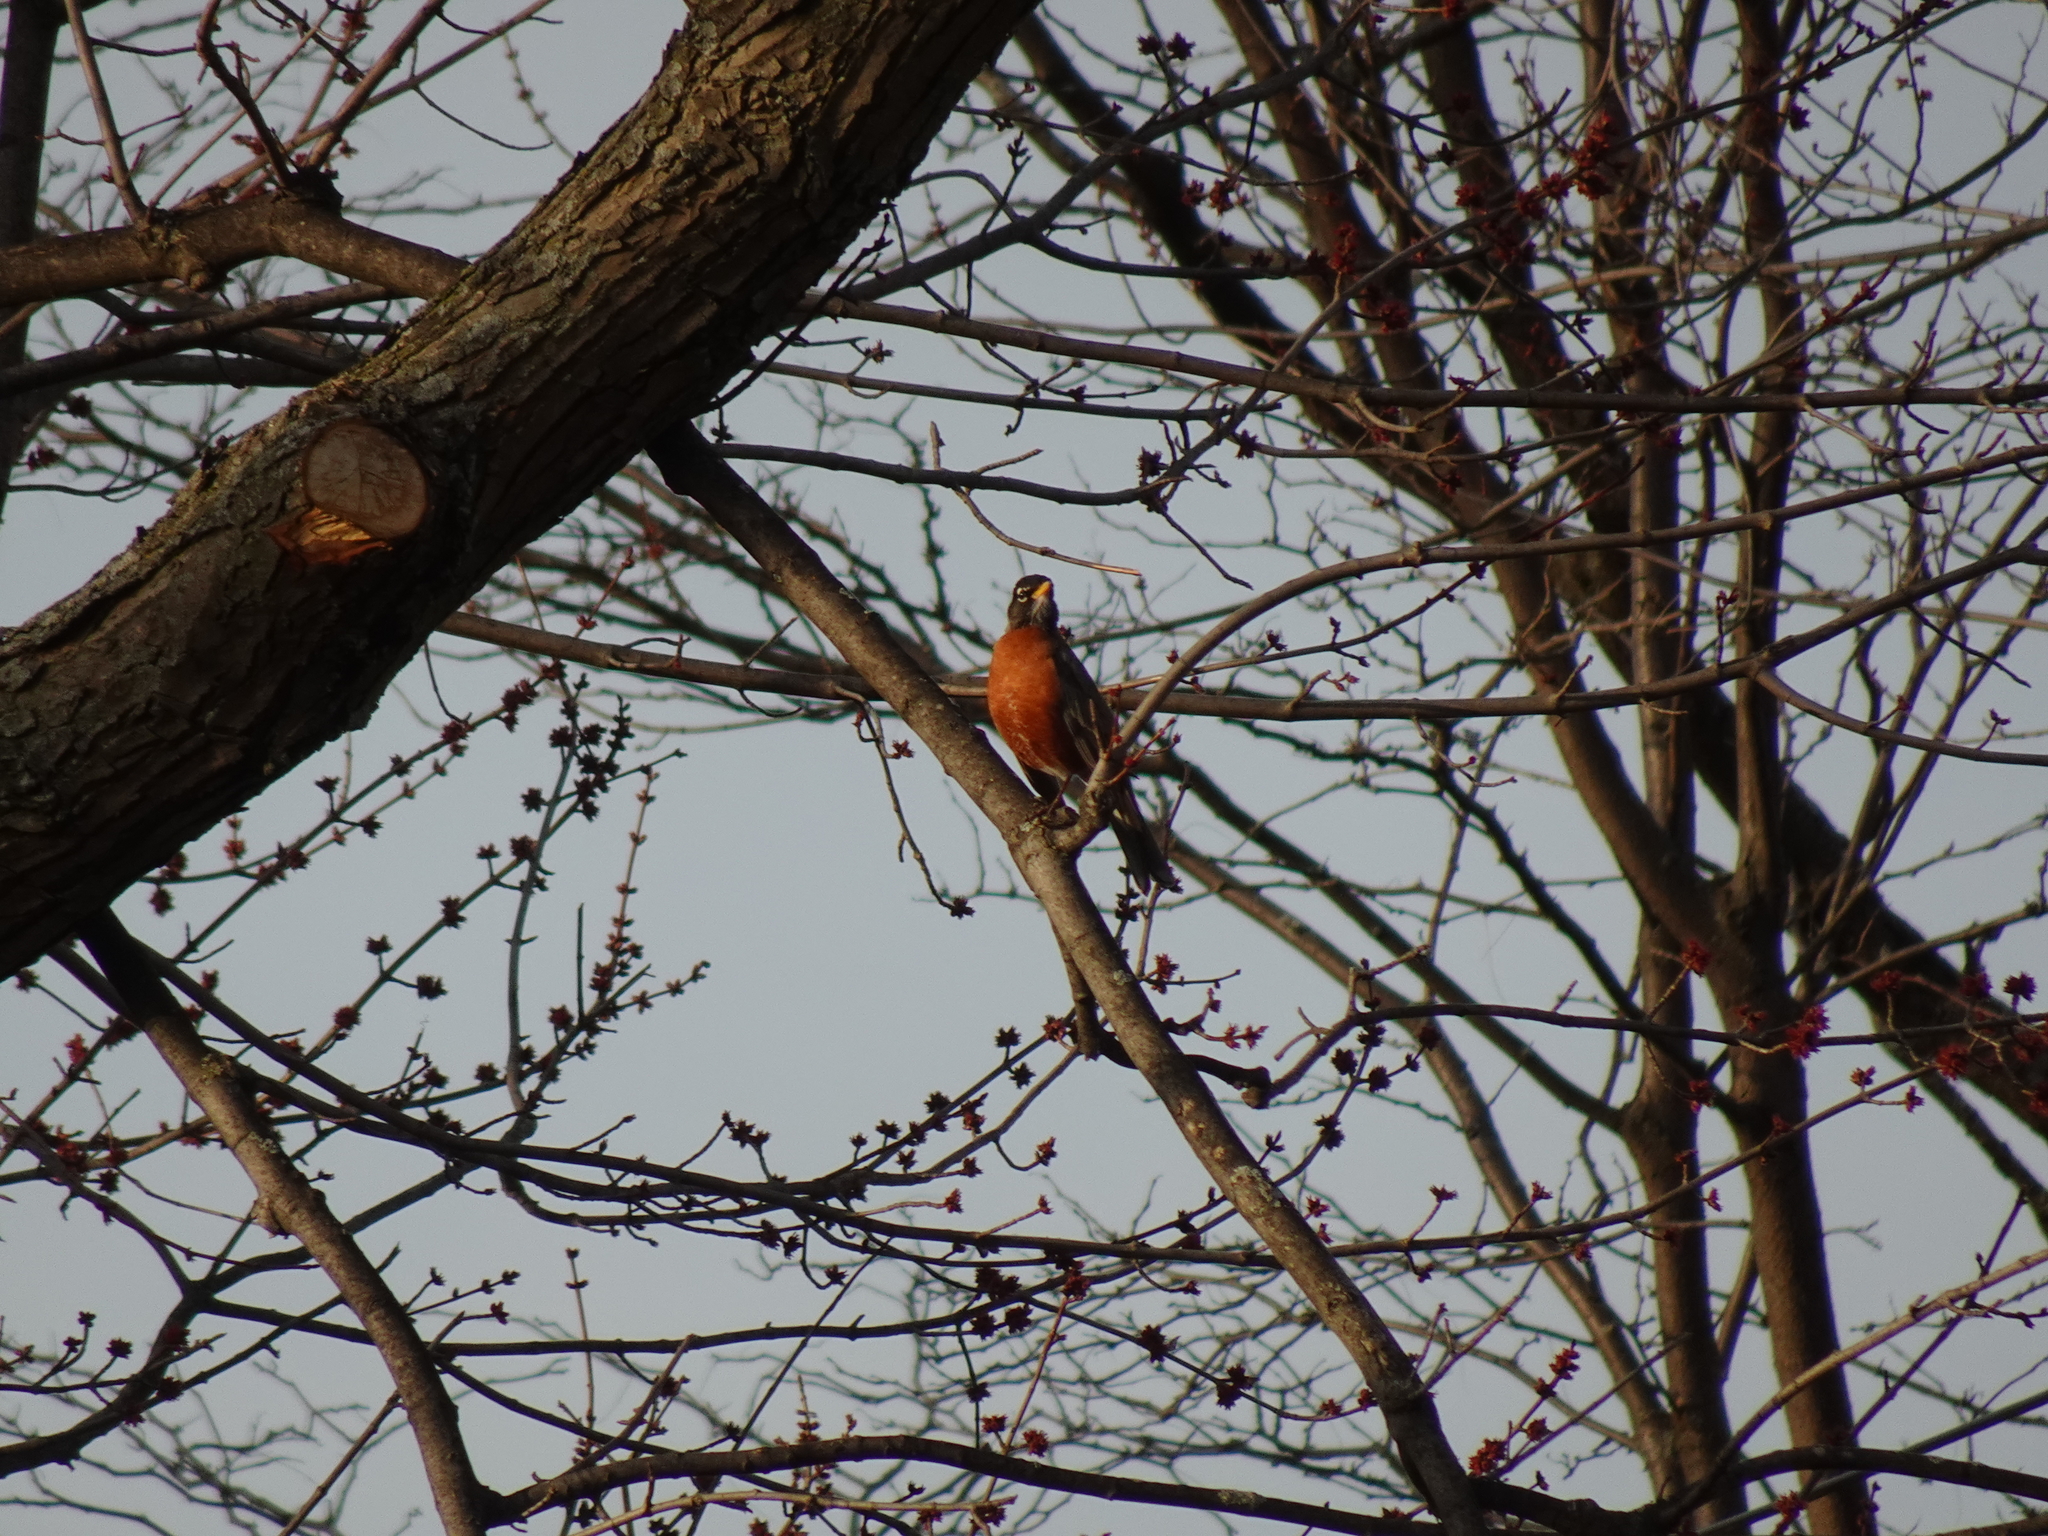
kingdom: Animalia
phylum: Chordata
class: Aves
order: Passeriformes
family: Turdidae
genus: Turdus
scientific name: Turdus migratorius
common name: American robin
